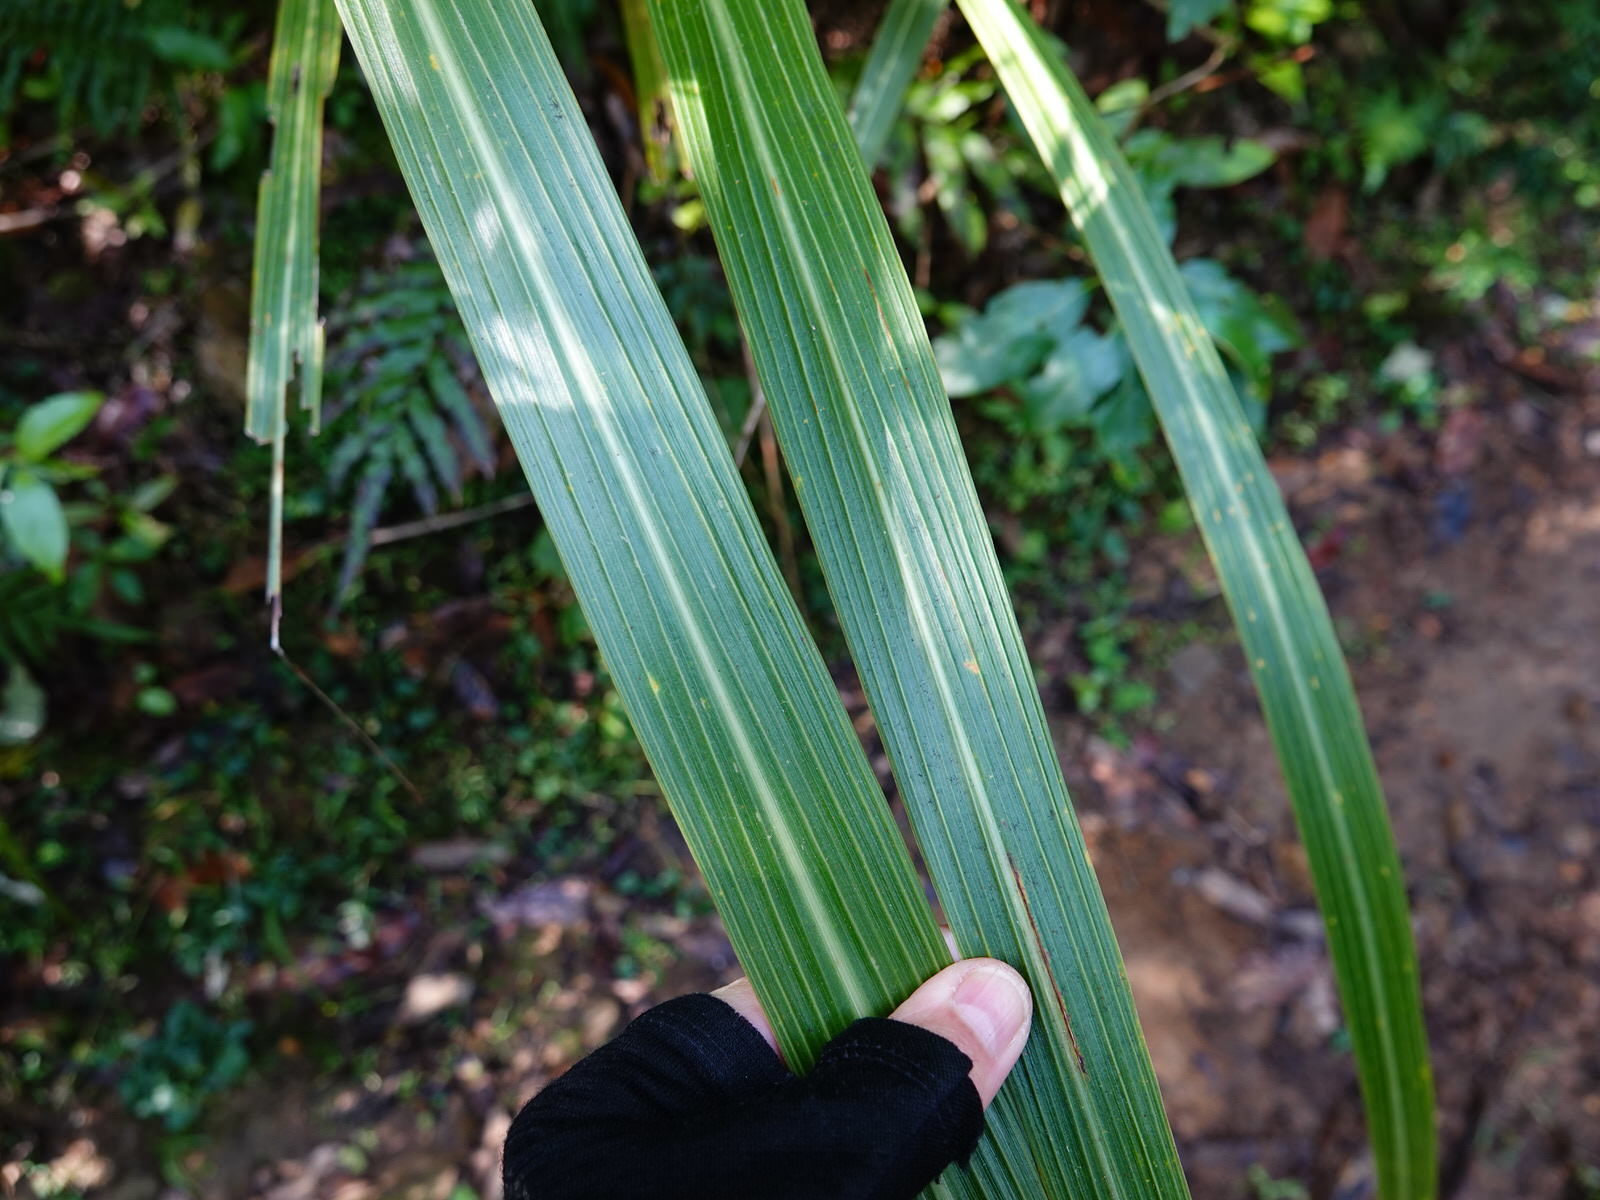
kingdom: Plantae
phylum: Tracheophyta
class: Liliopsida
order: Asparagales
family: Asparagaceae
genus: Cordyline
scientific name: Cordyline banksii
